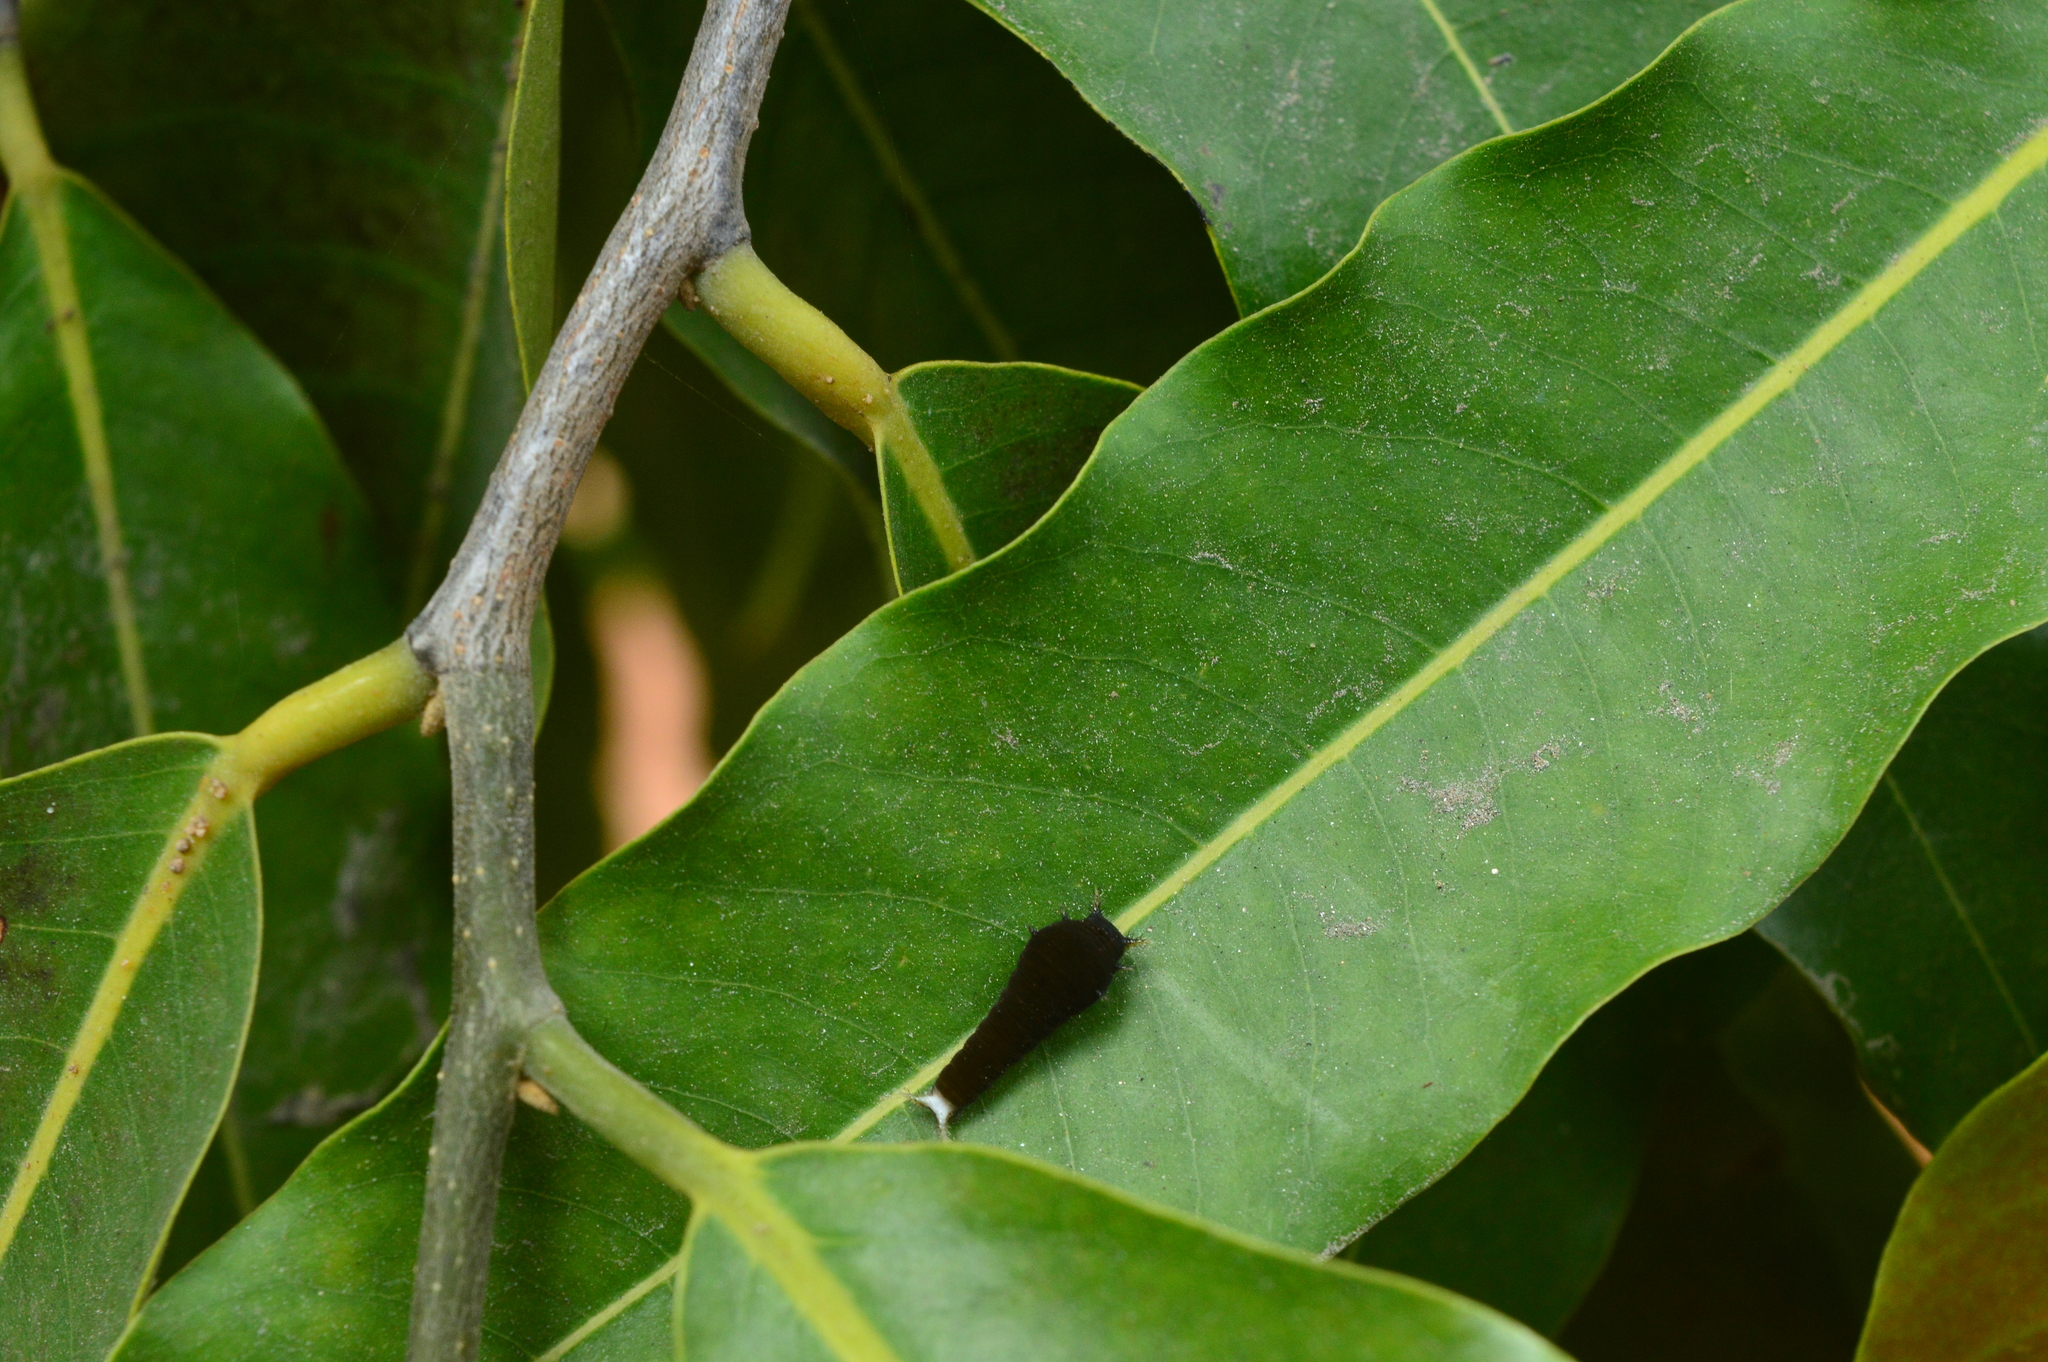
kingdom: Animalia
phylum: Arthropoda
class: Insecta
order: Lepidoptera
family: Papilionidae
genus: Graphium
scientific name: Graphium agamemnon
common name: Tailed jay
